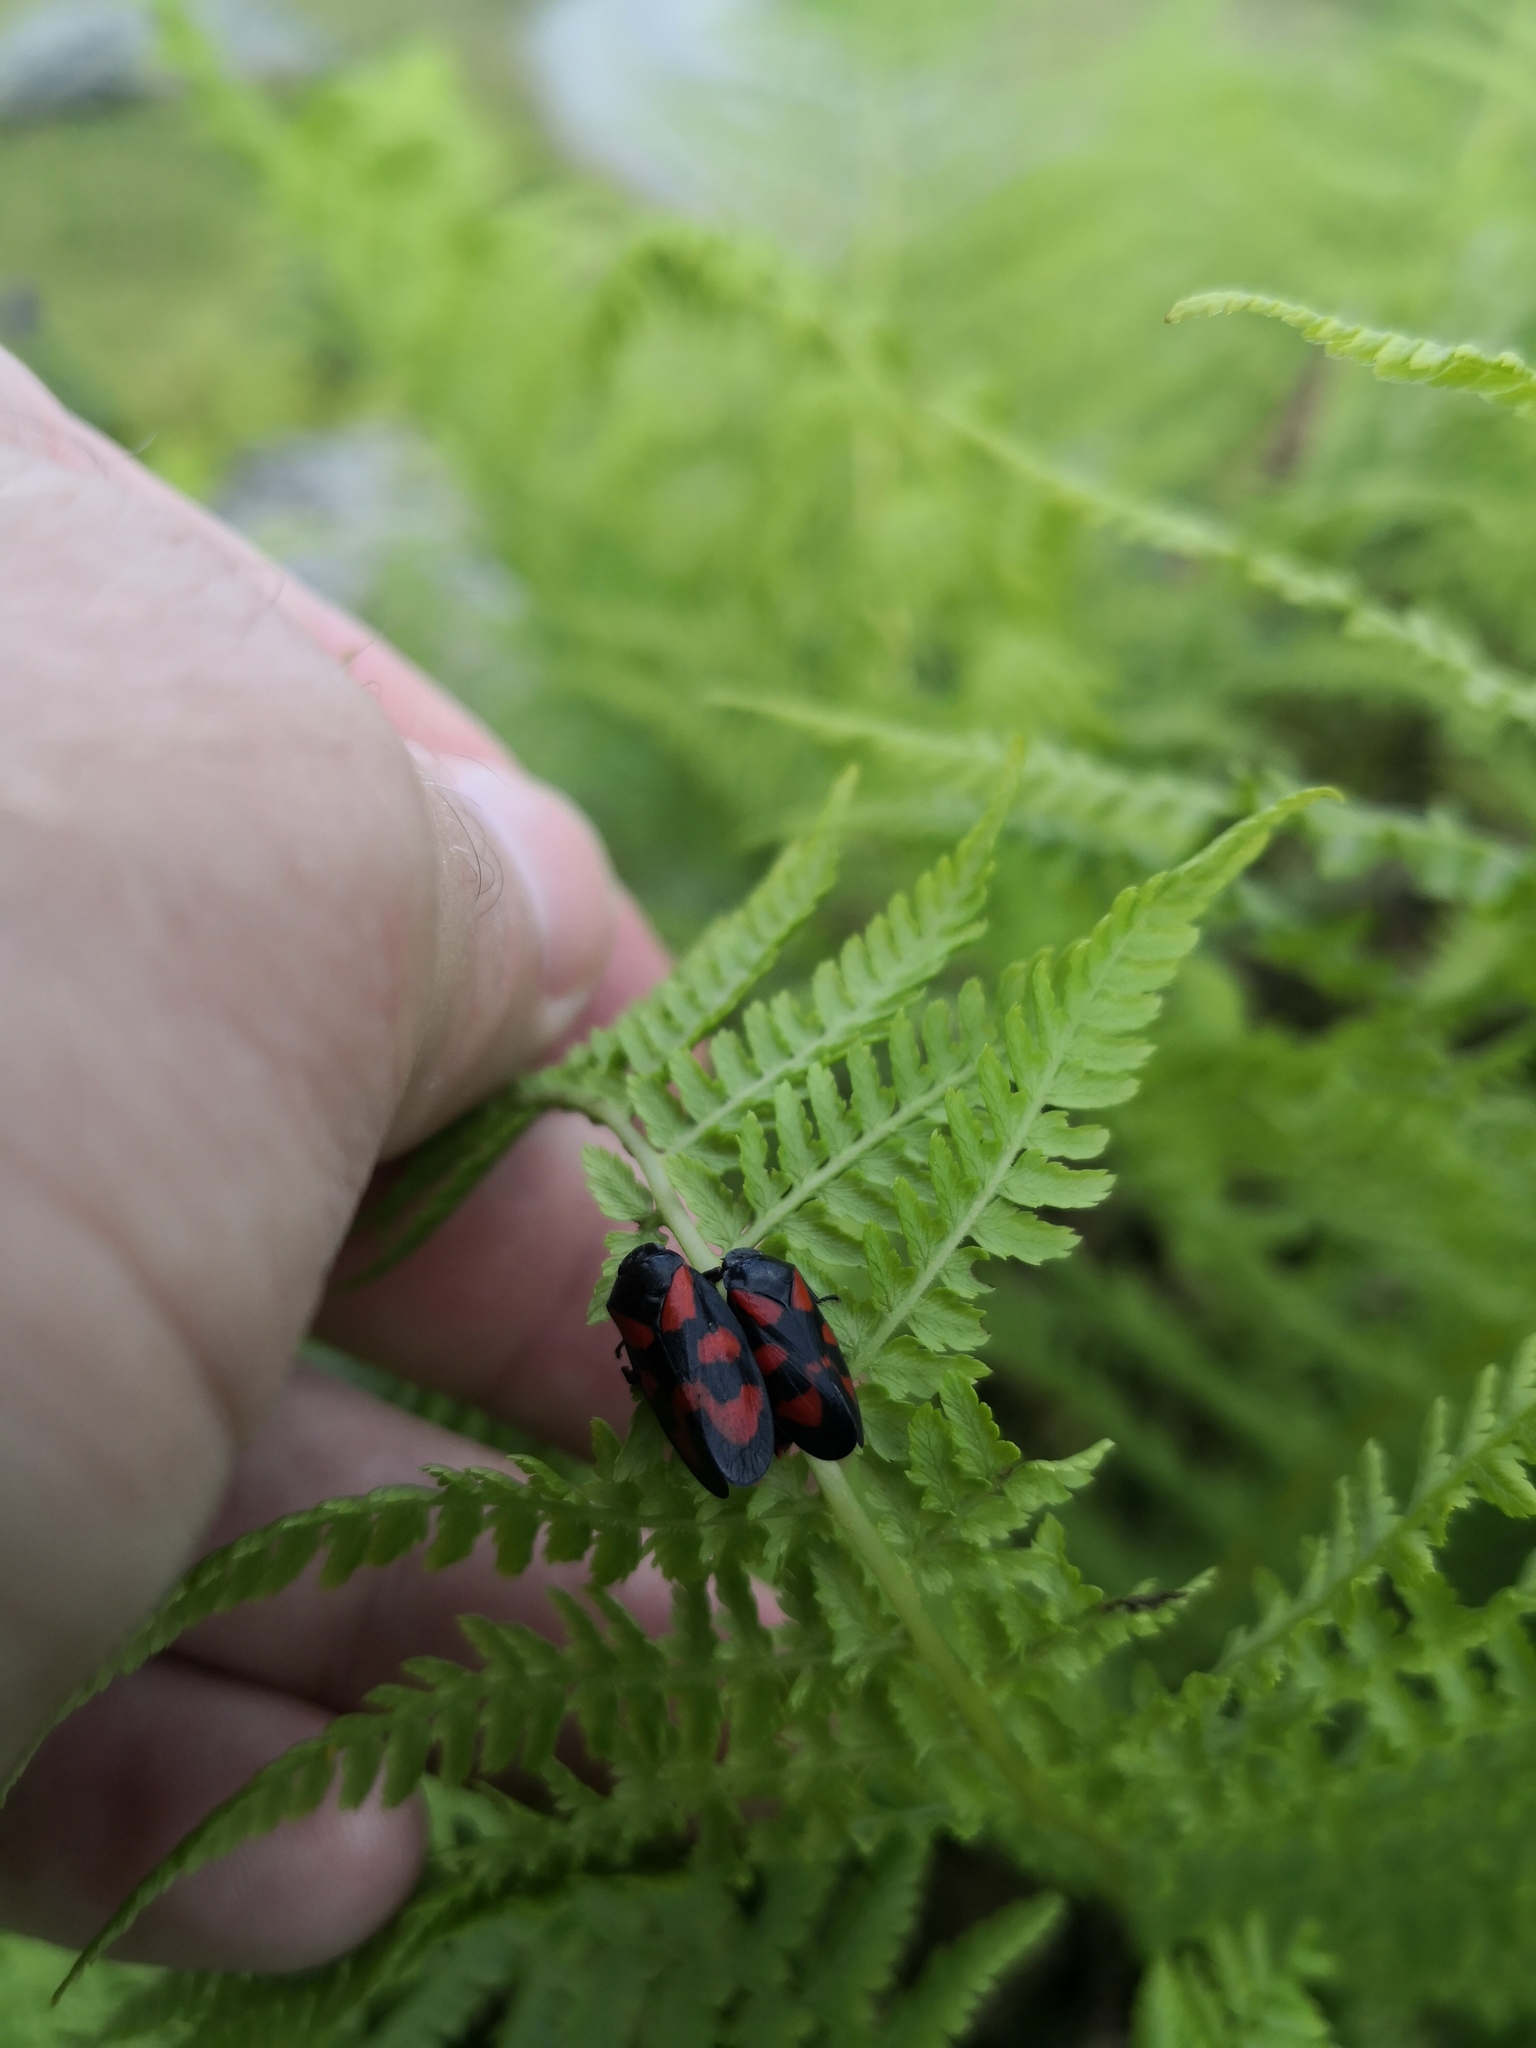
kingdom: Animalia
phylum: Arthropoda
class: Insecta
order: Hemiptera
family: Cercopidae
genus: Cercopis
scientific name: Cercopis vulnerata
